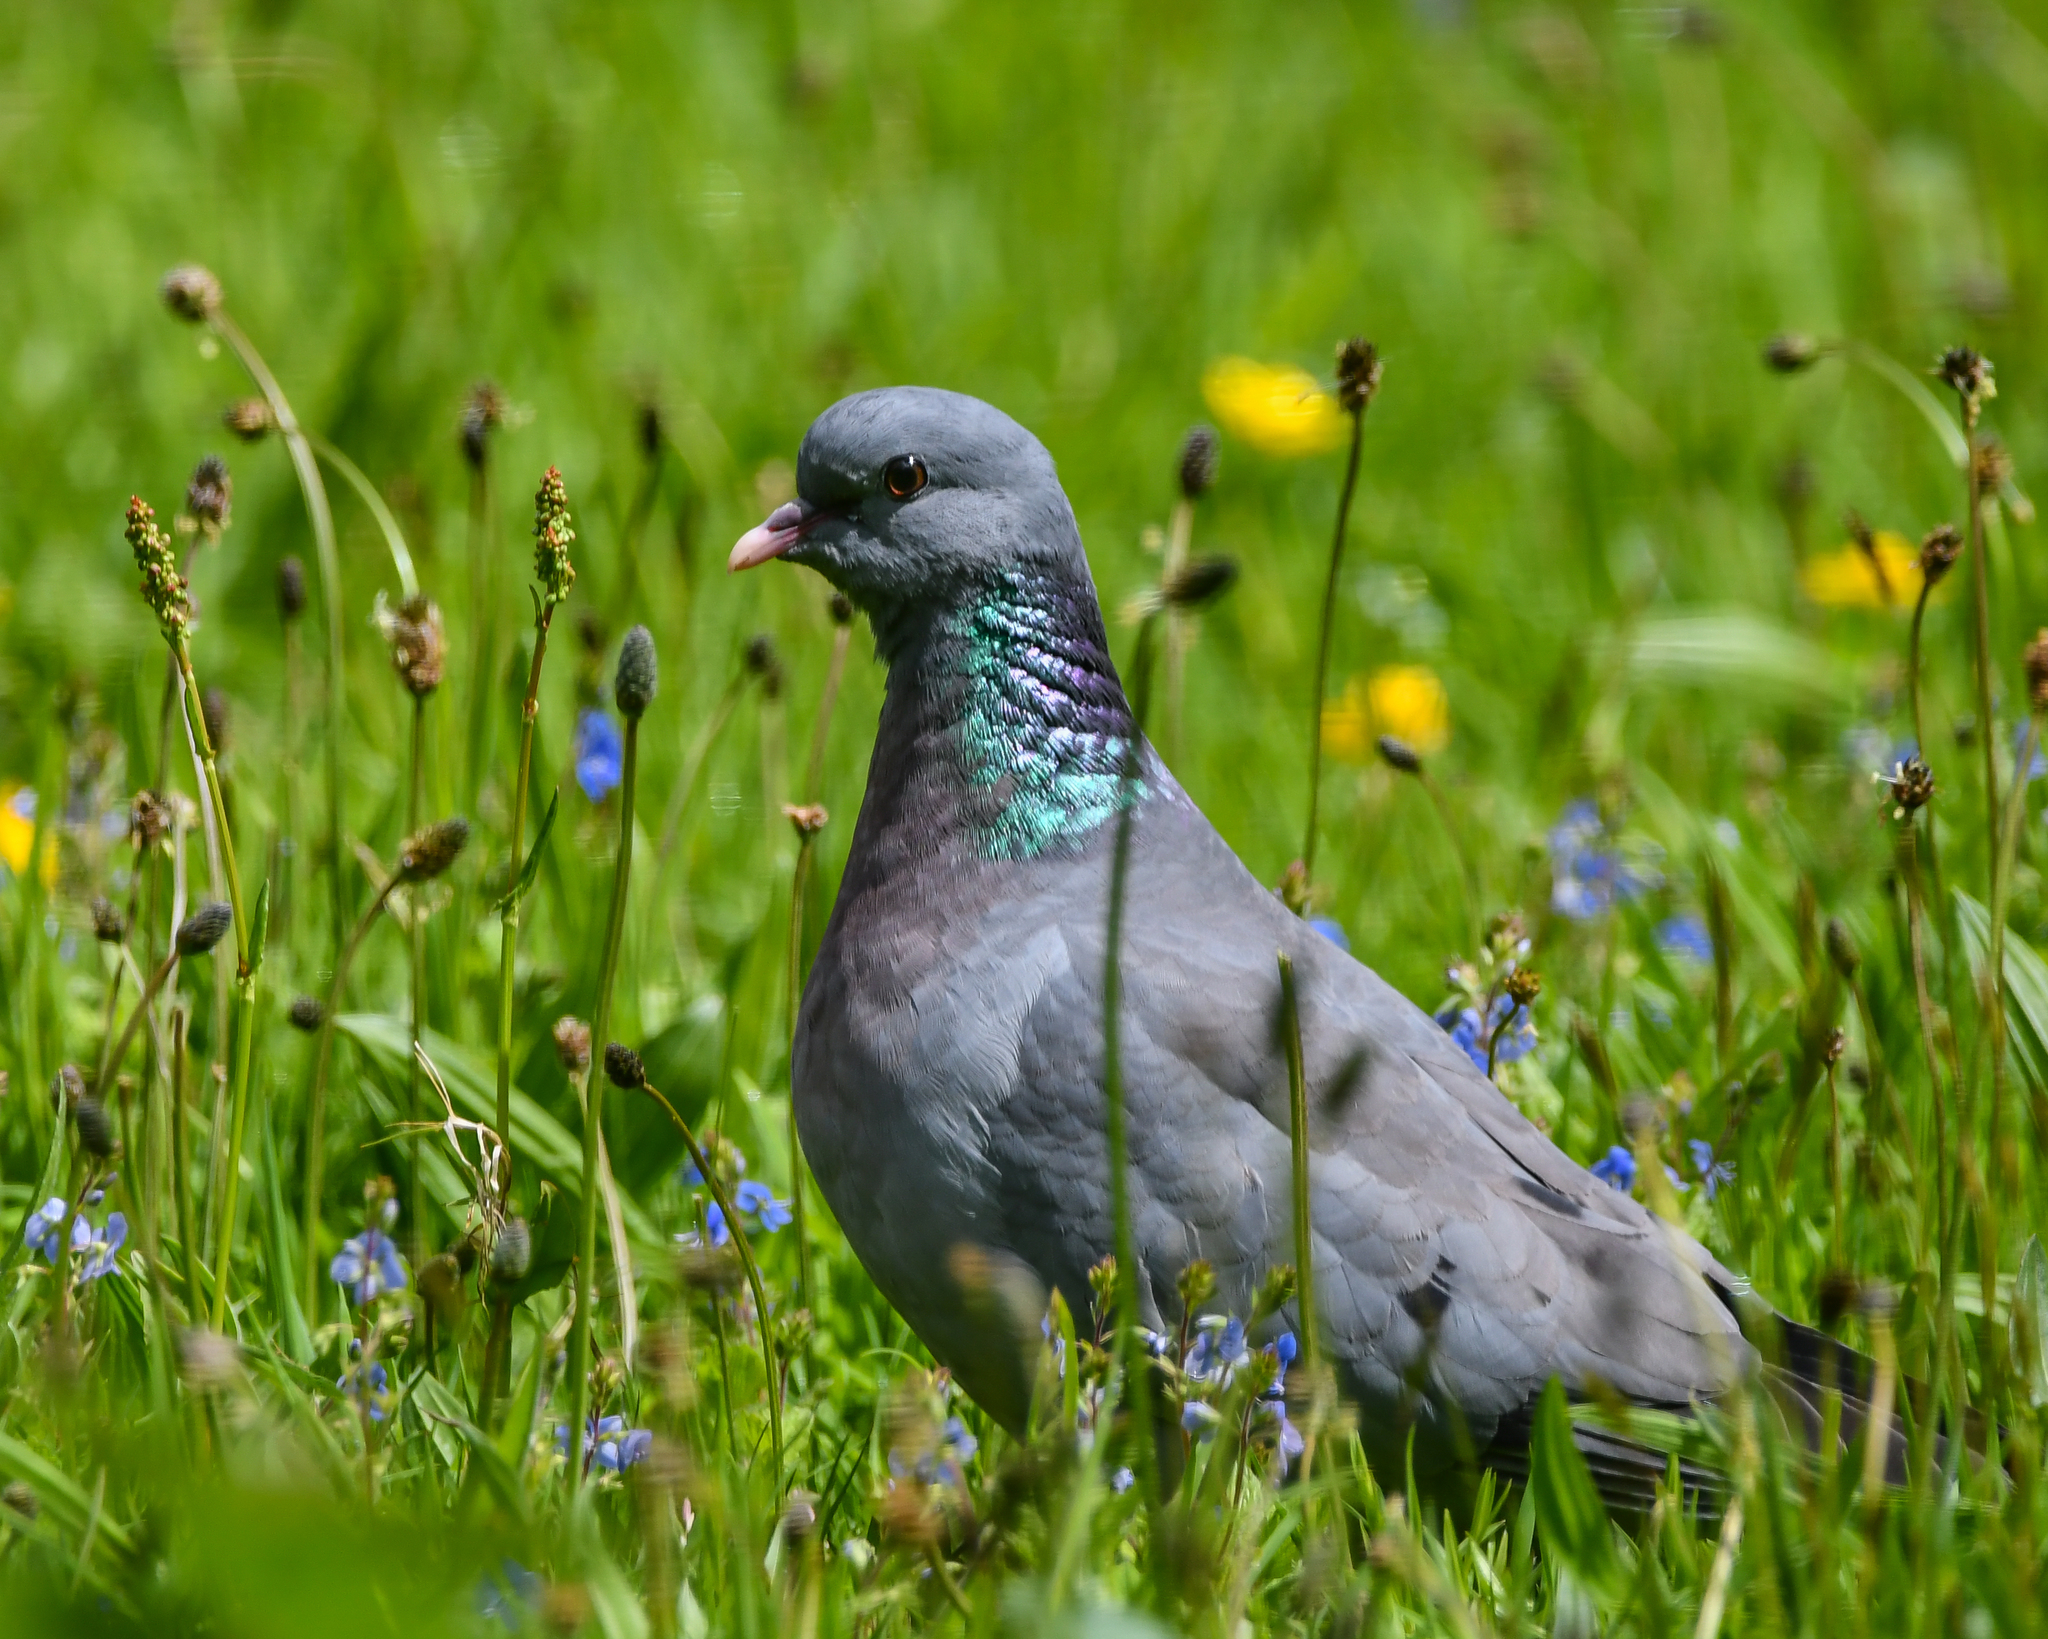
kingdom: Animalia
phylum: Chordata
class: Aves
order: Columbiformes
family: Columbidae
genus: Columba
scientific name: Columba oenas
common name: Stock dove
